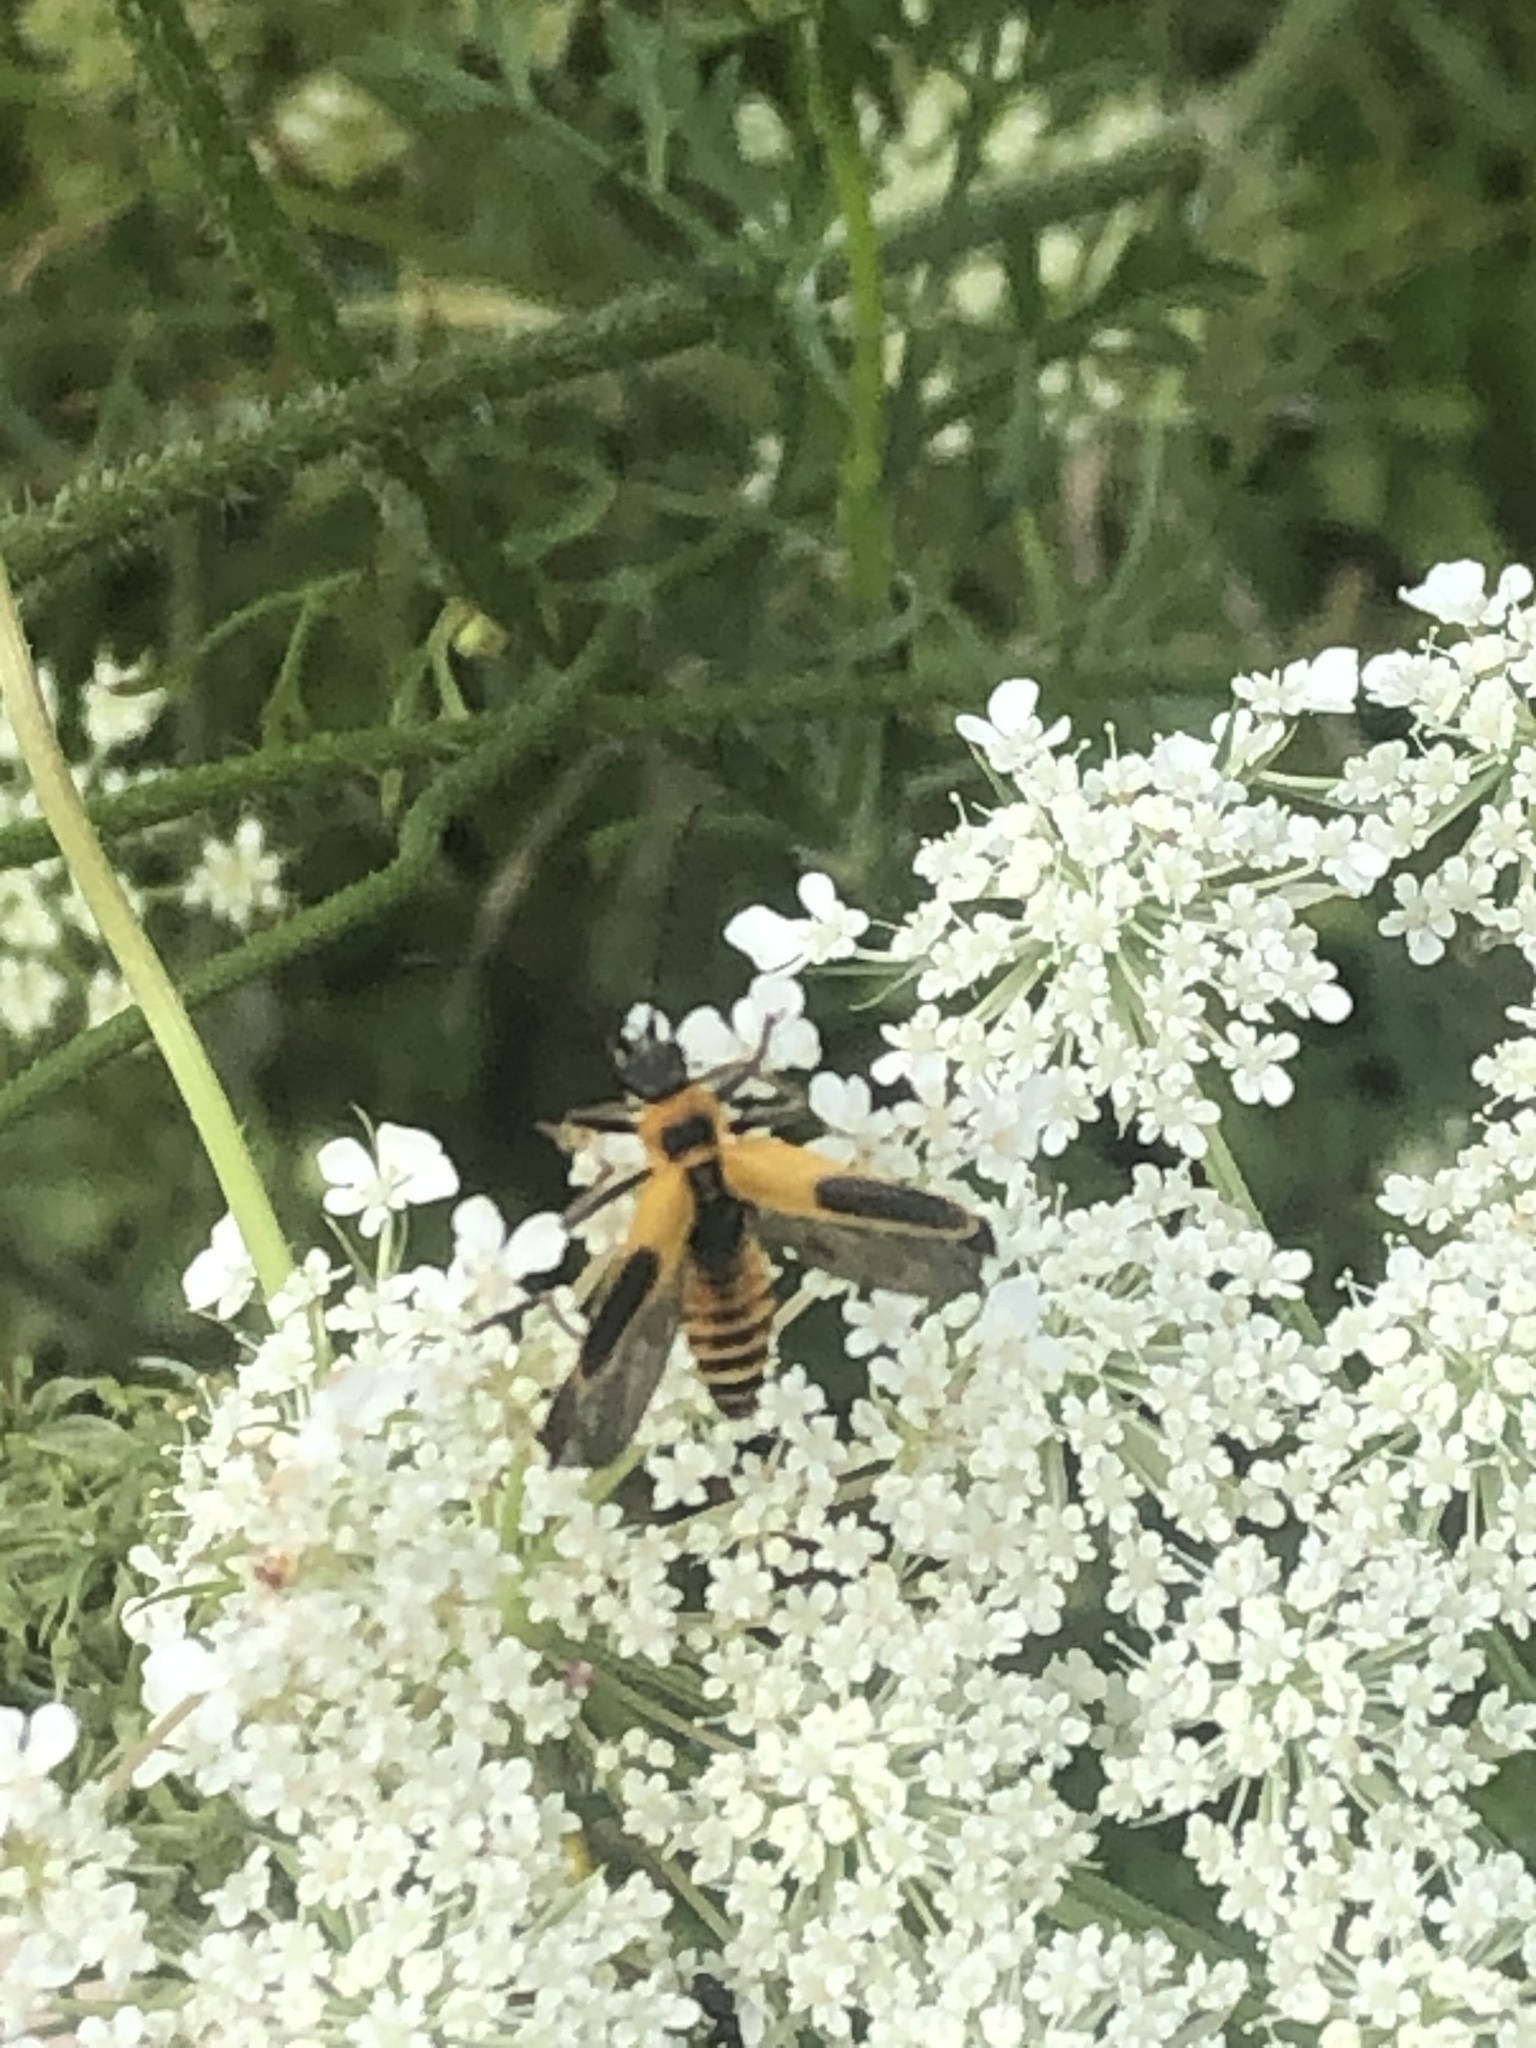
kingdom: Animalia
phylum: Arthropoda
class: Insecta
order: Coleoptera
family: Cantharidae
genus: Chauliognathus
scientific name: Chauliognathus pensylvanicus
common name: Goldenrod soldier beetle
